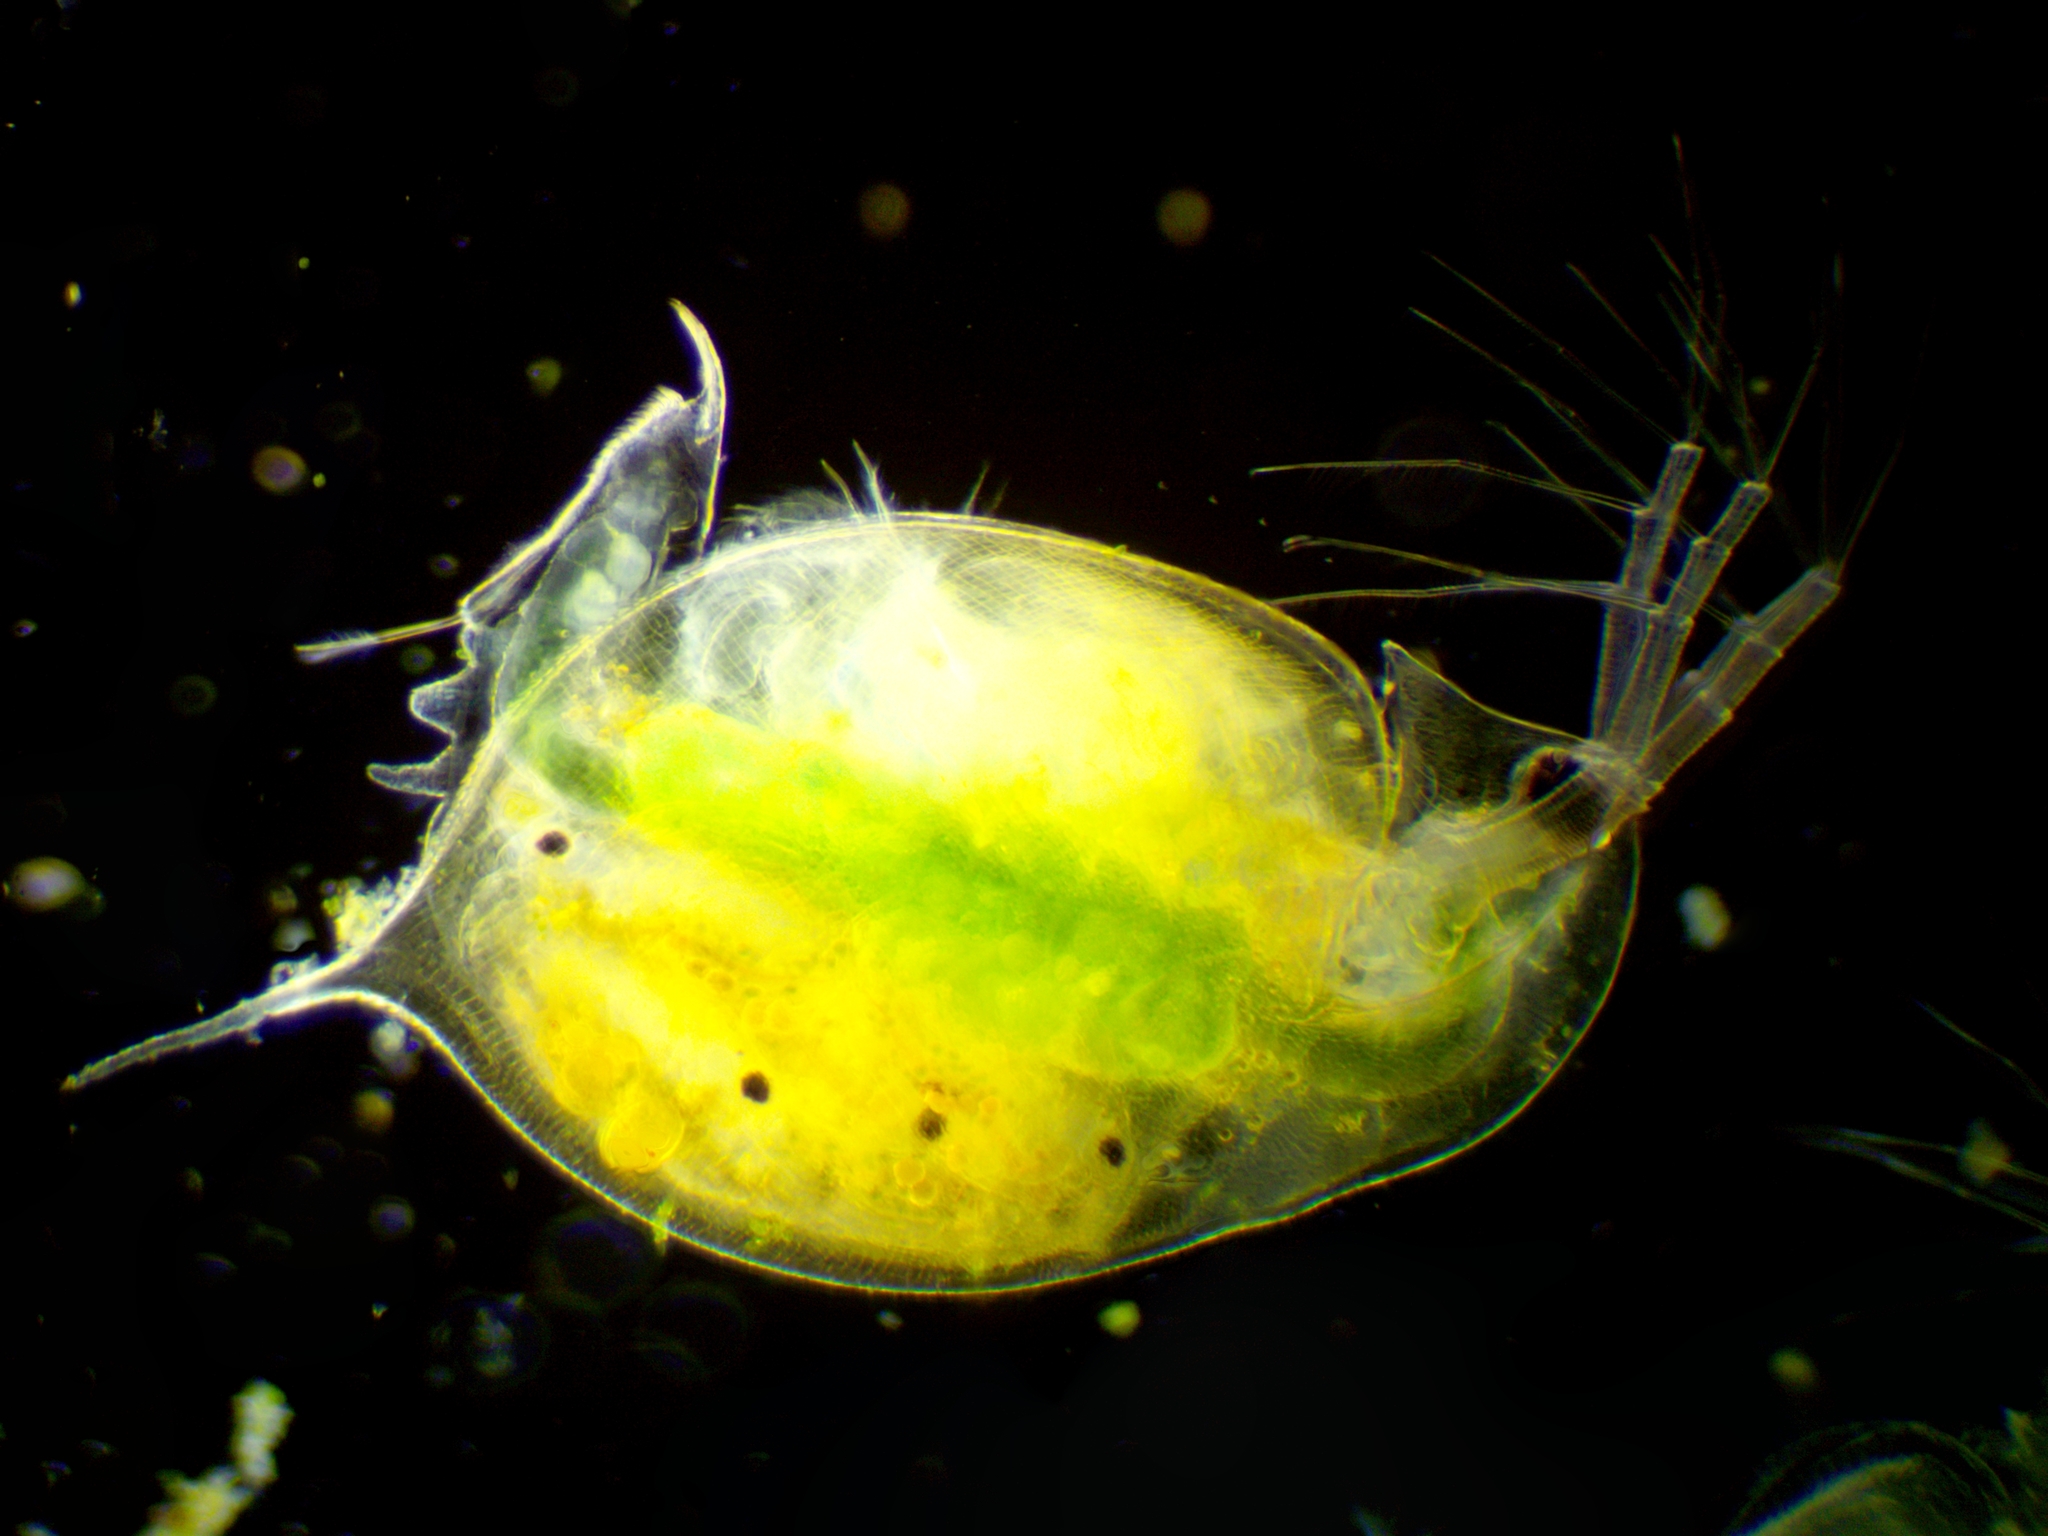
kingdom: Animalia
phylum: Arthropoda
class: Branchiopoda
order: Diplostraca
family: Daphniidae
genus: Daphnia
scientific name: Daphnia curvirostris
